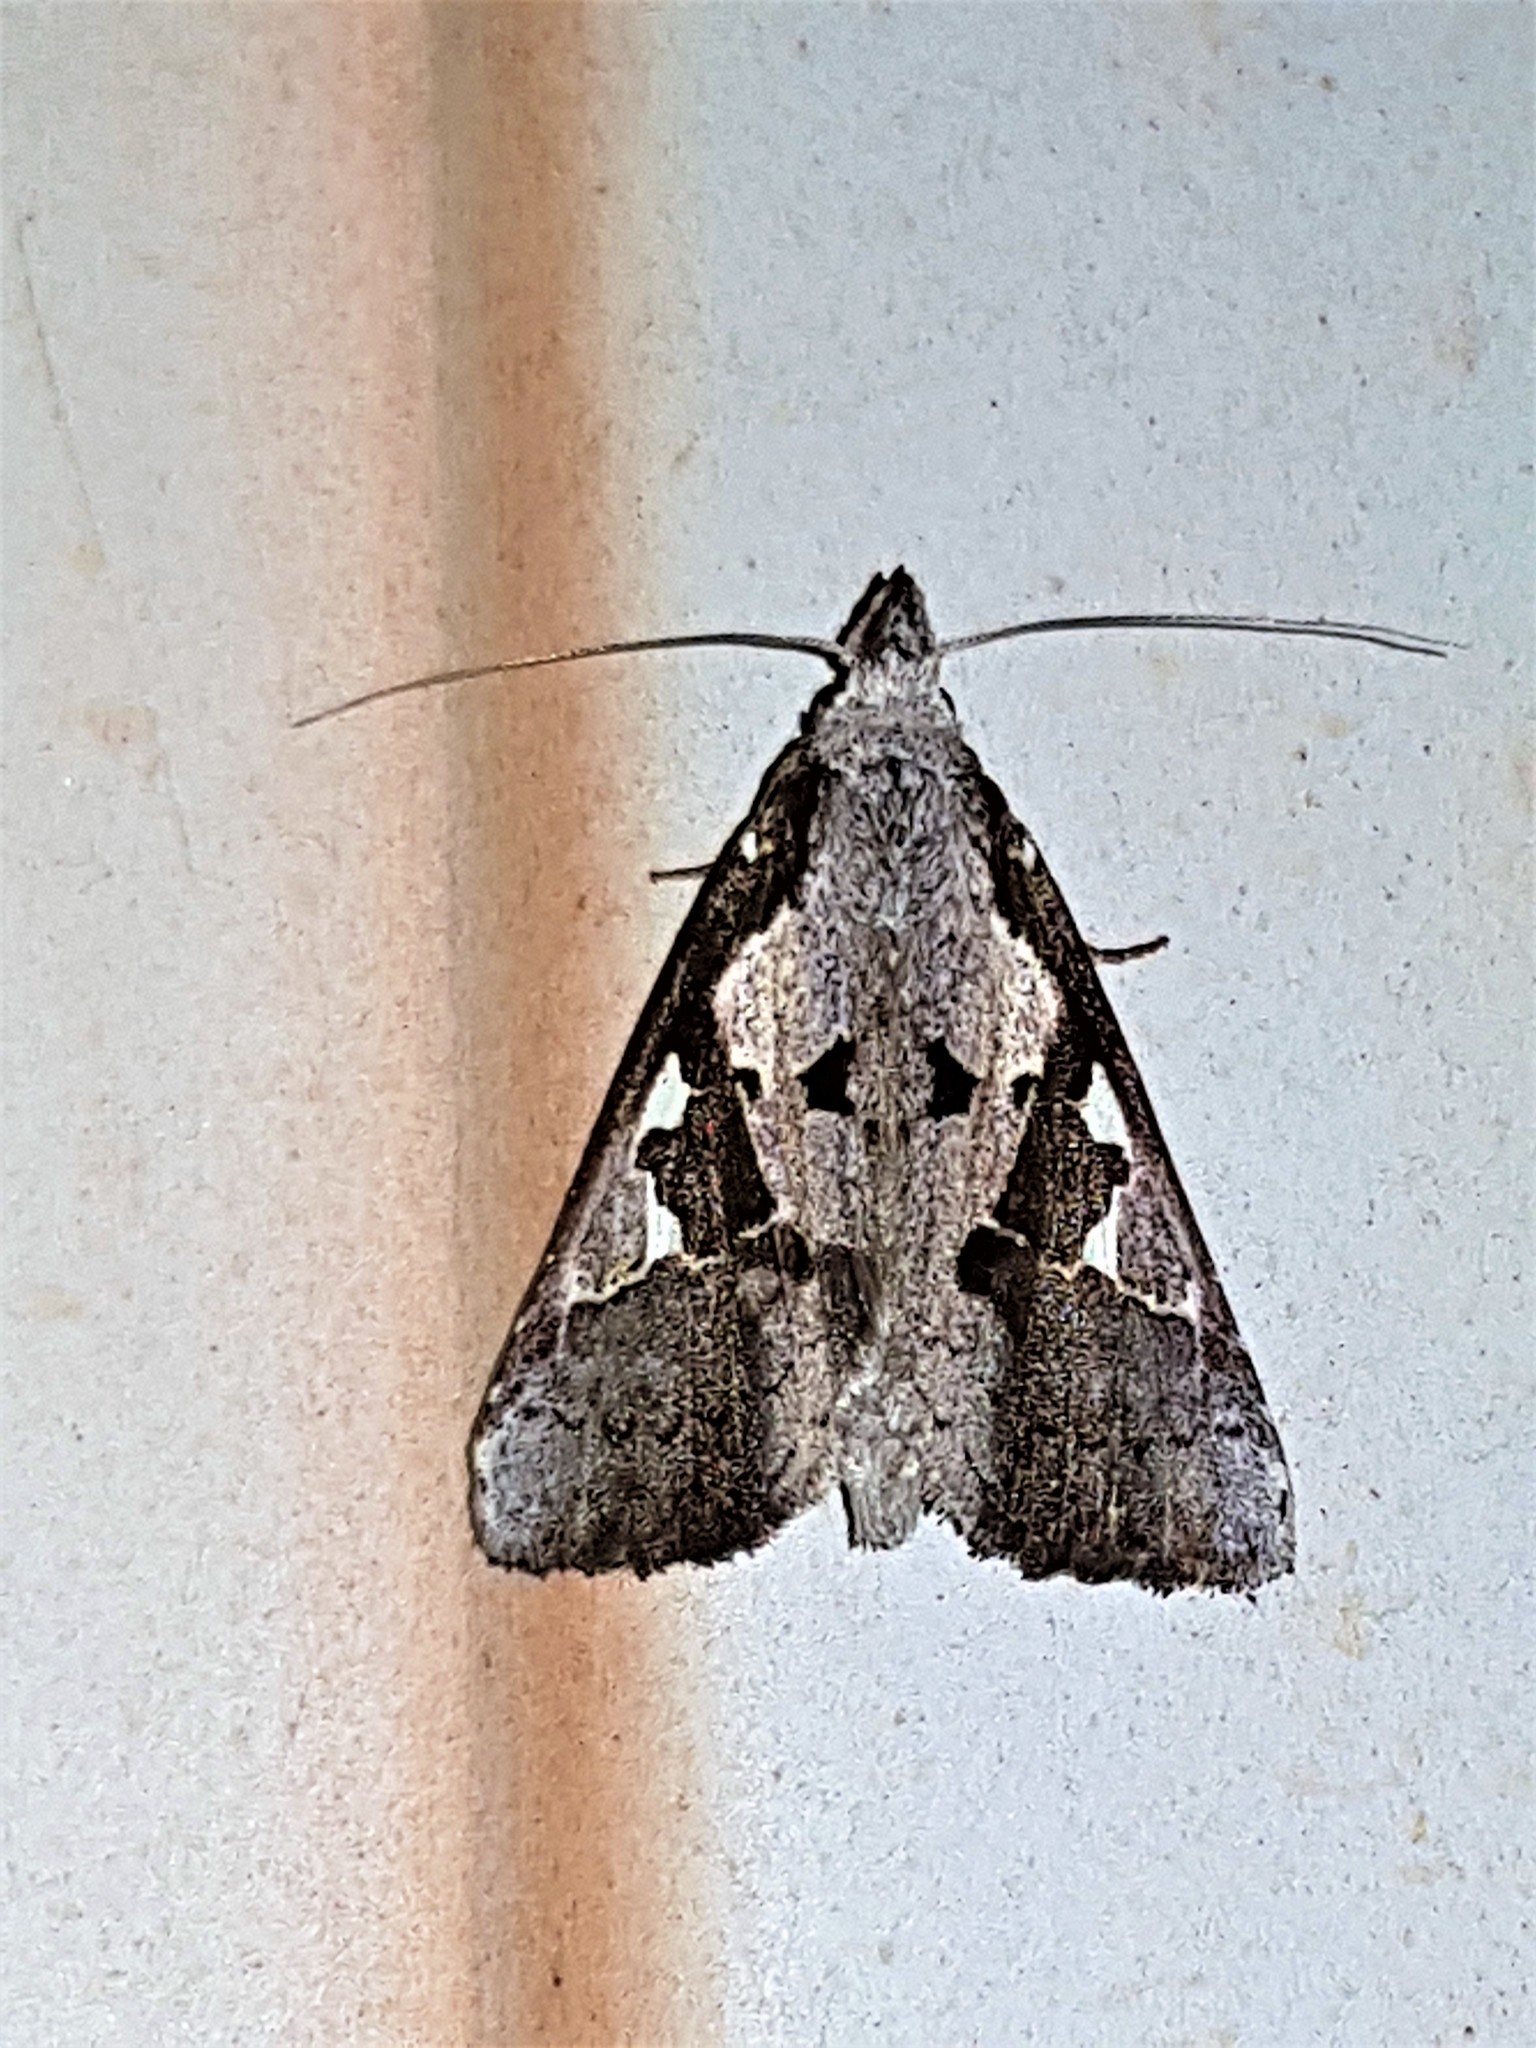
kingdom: Animalia
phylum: Arthropoda
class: Insecta
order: Lepidoptera
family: Notodontidae
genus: Lemairegisa
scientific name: Lemairegisa Lepasta maltha
